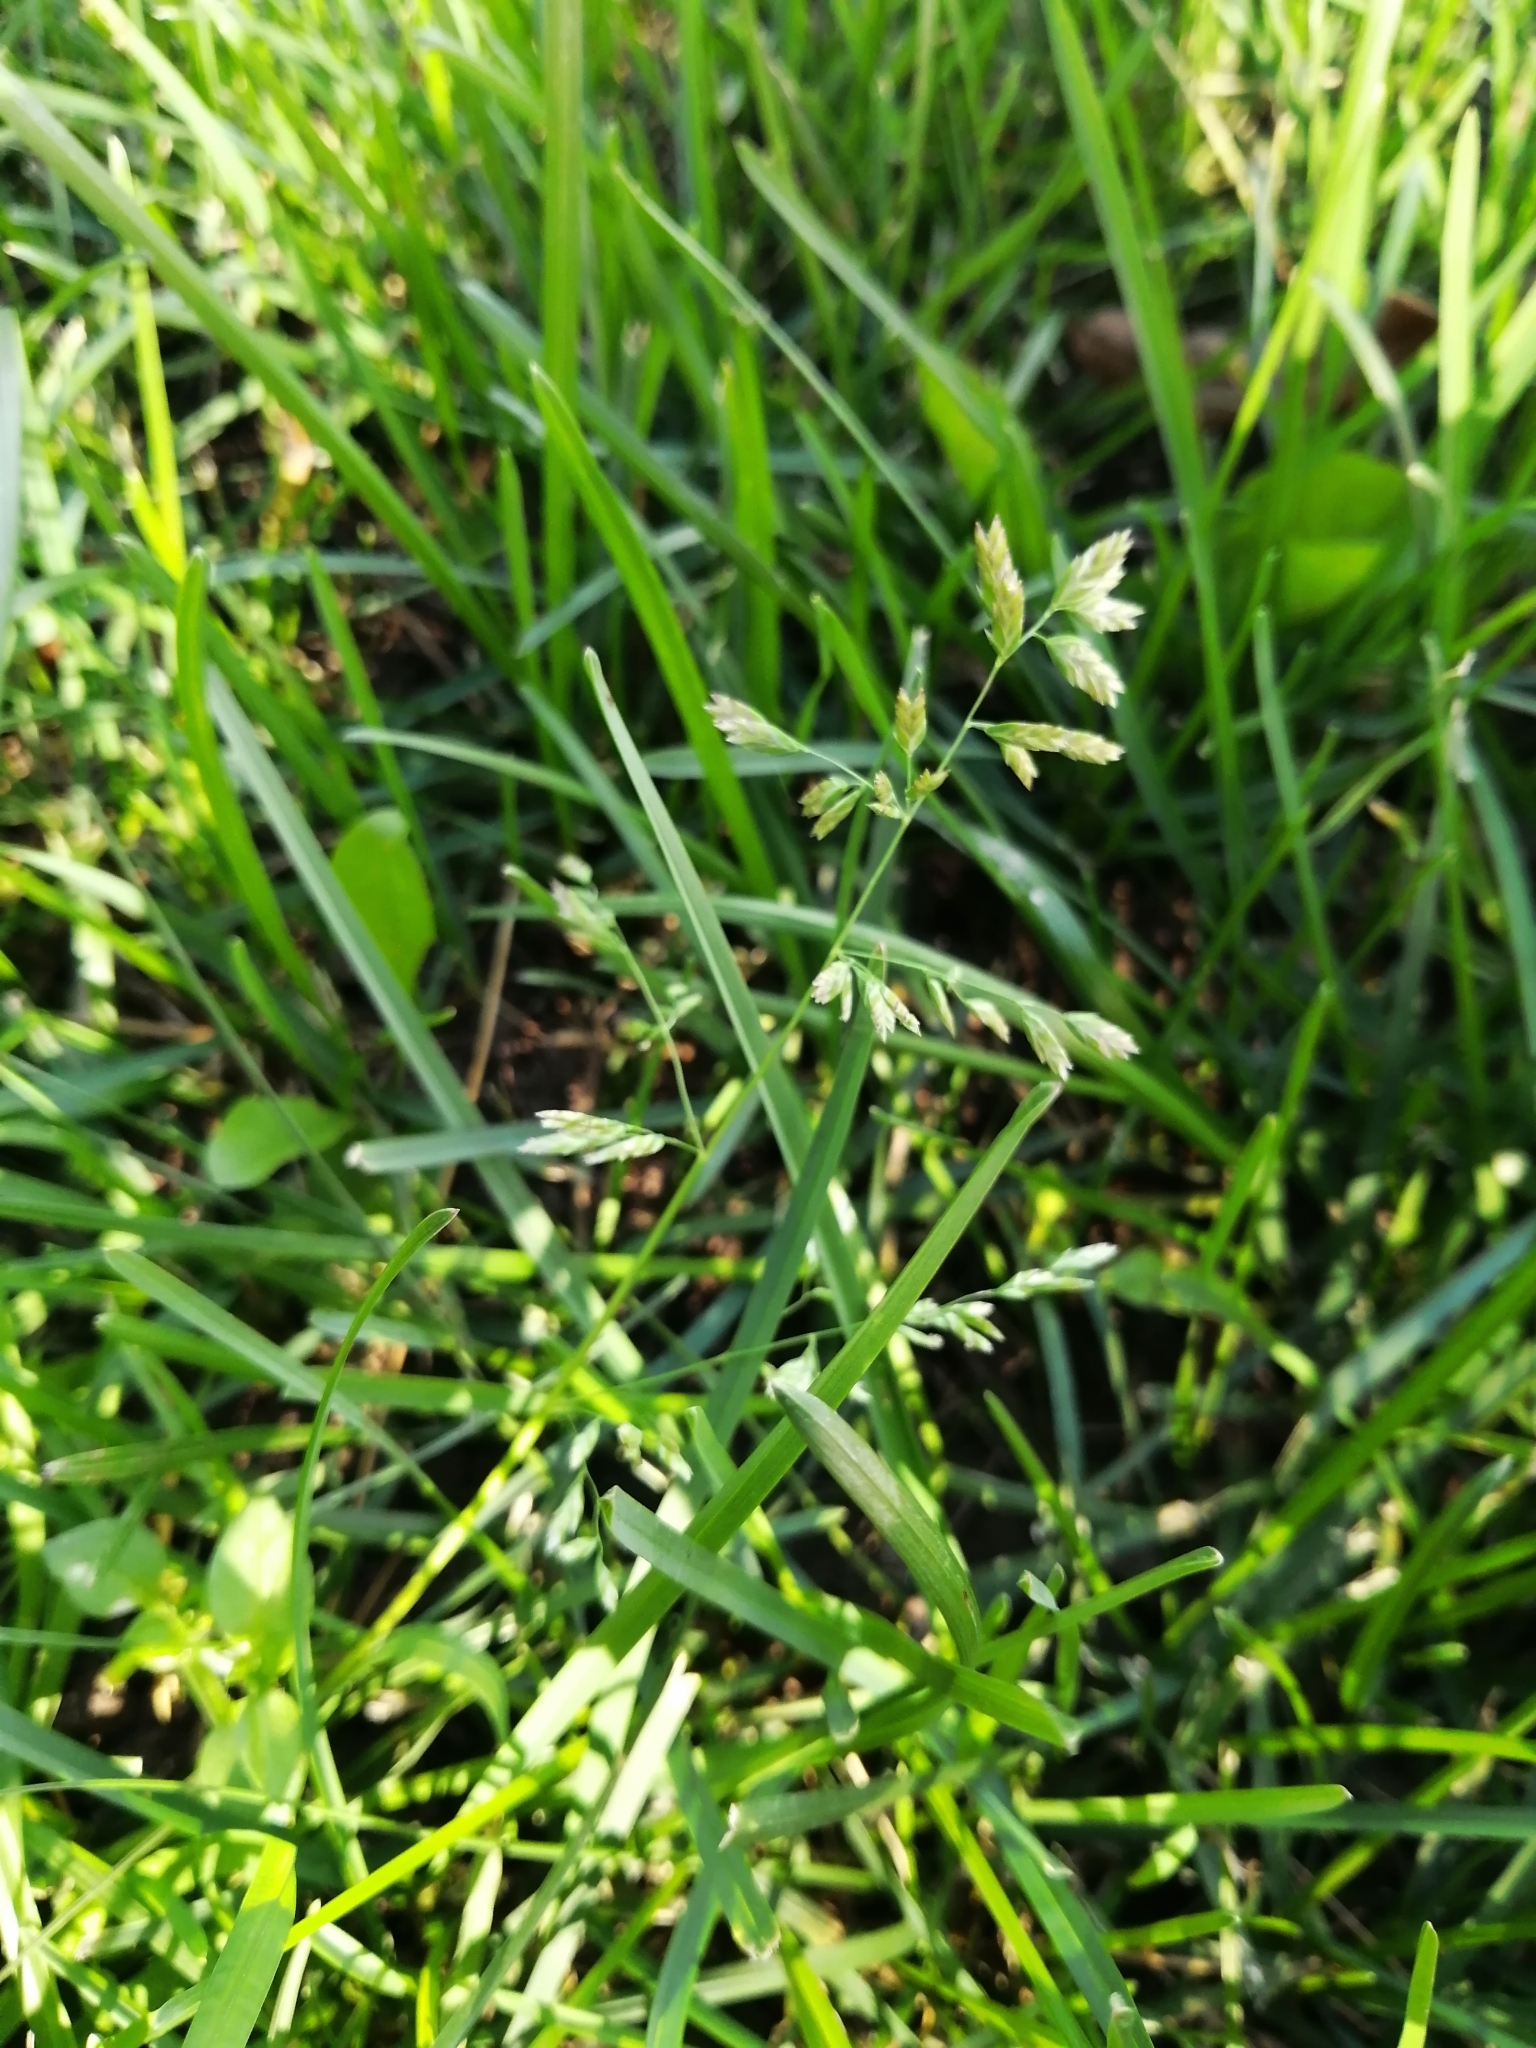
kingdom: Plantae
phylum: Tracheophyta
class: Liliopsida
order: Poales
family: Poaceae
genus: Poa
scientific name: Poa annua
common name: Annual bluegrass
